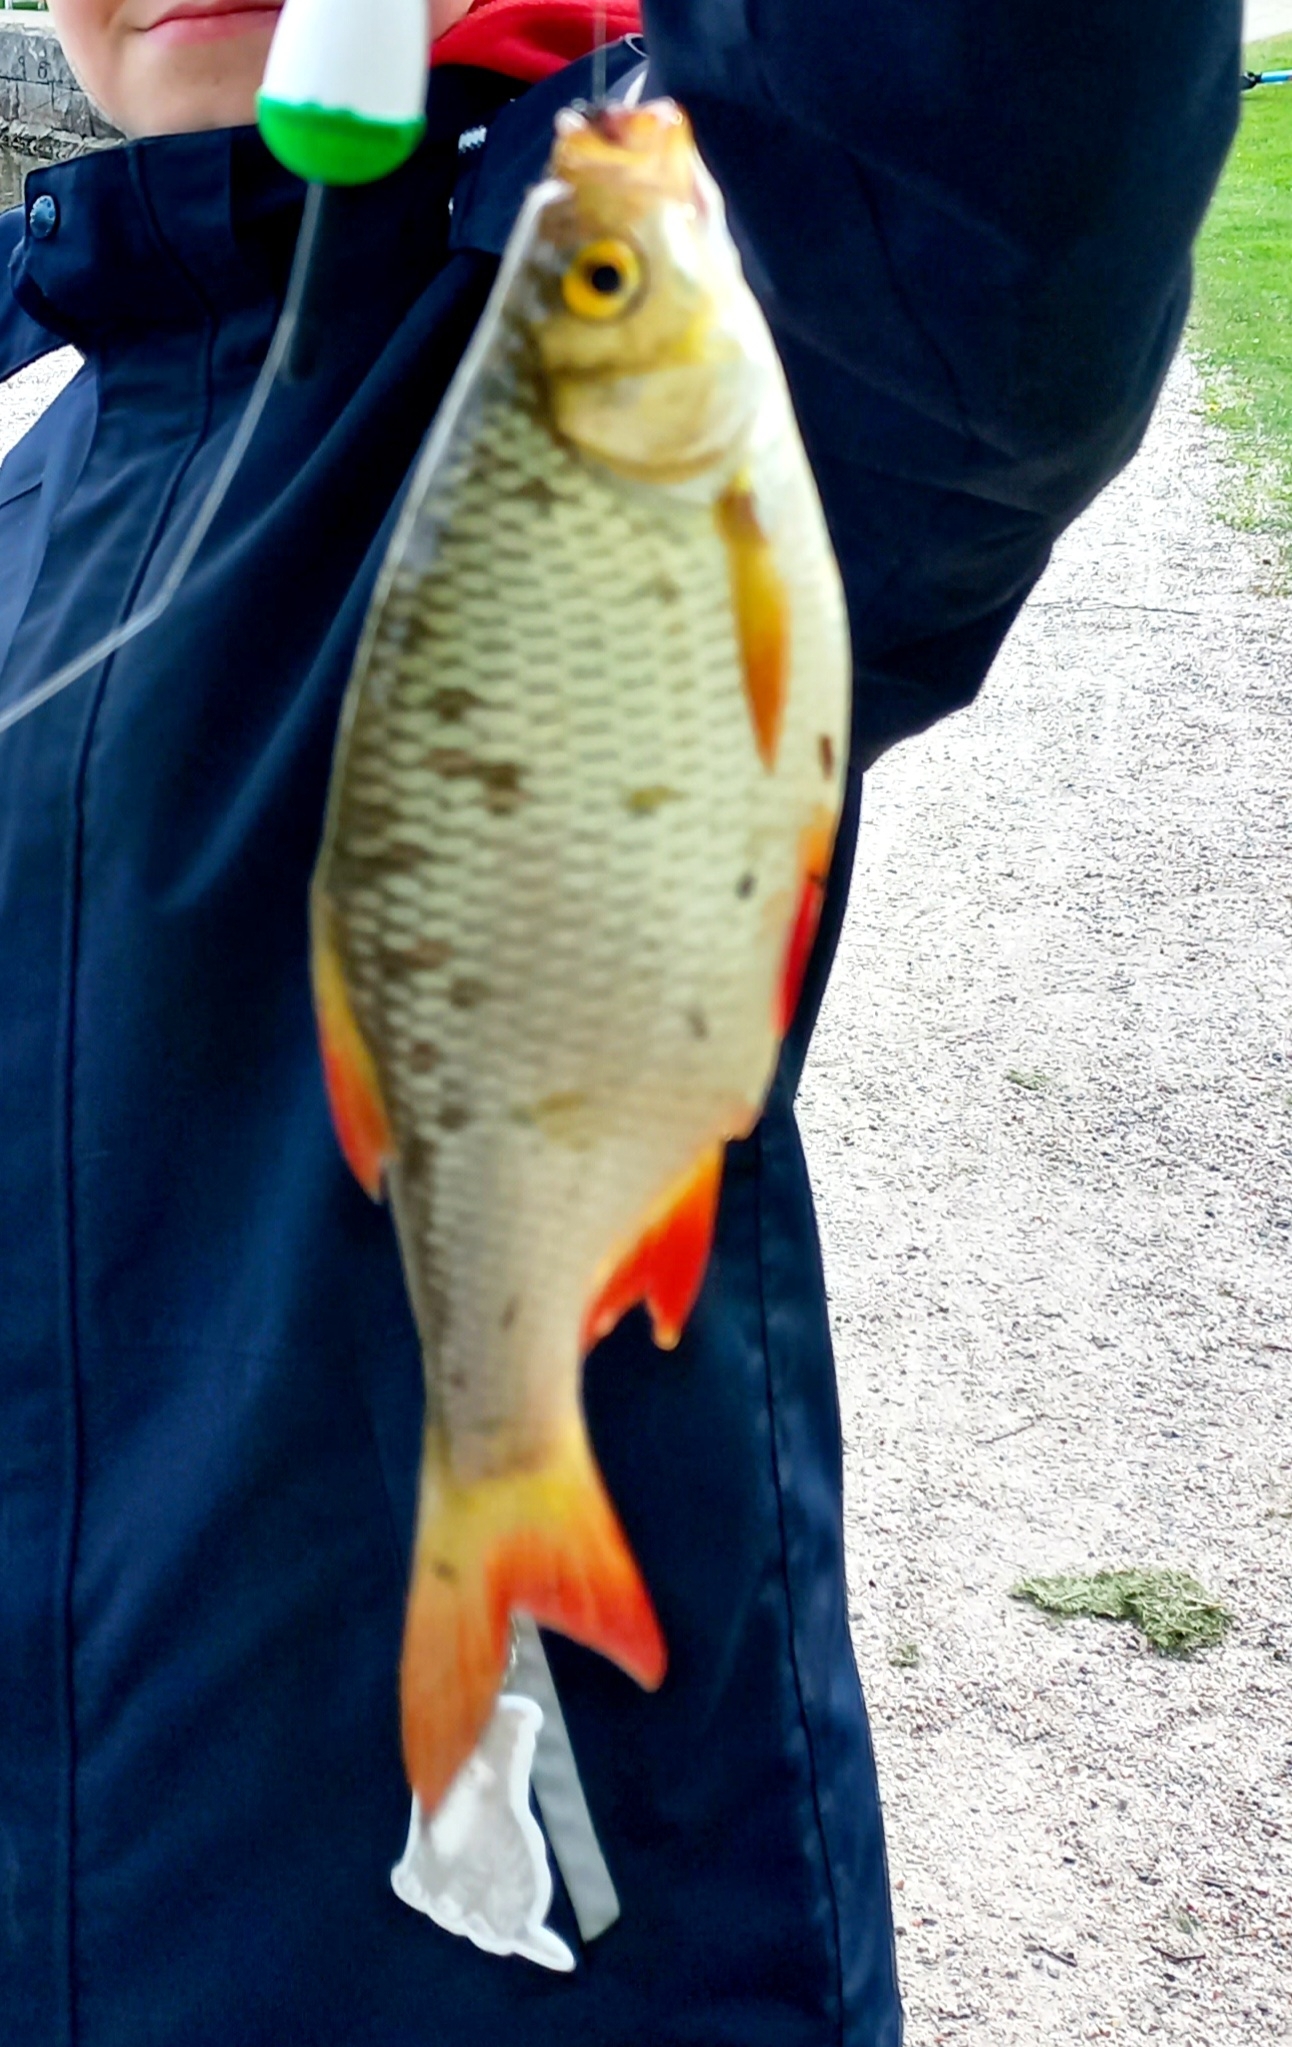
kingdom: Animalia
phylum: Chordata
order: Cypriniformes
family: Cyprinidae
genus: Scardinius
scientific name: Scardinius erythrophthalmus
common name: Rudd
